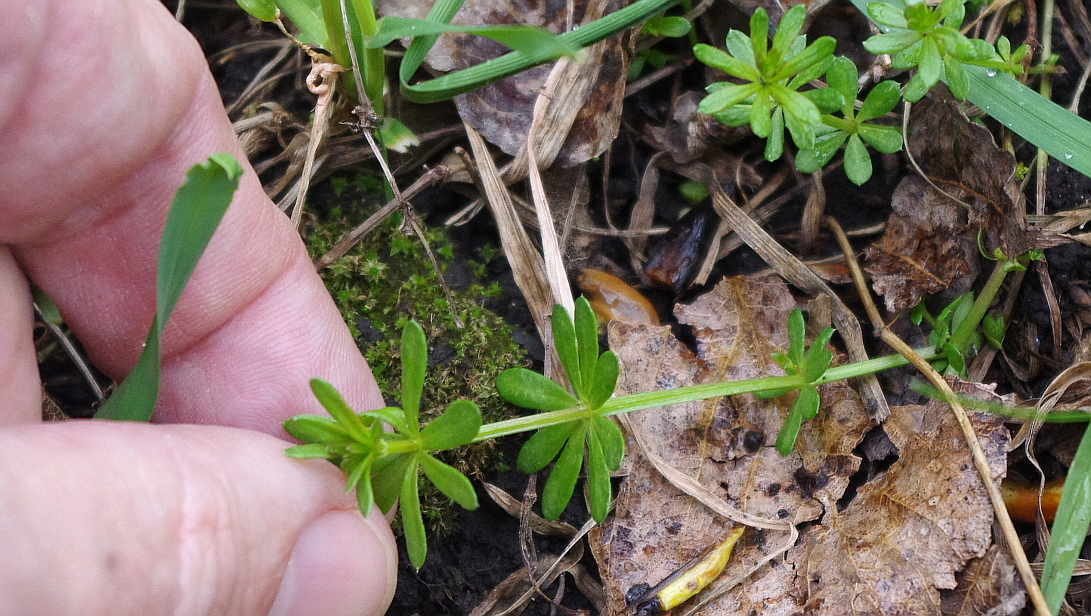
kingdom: Plantae
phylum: Tracheophyta
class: Magnoliopsida
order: Gentianales
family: Rubiaceae
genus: Galium
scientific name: Galium mollugo
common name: Hedge bedstraw
